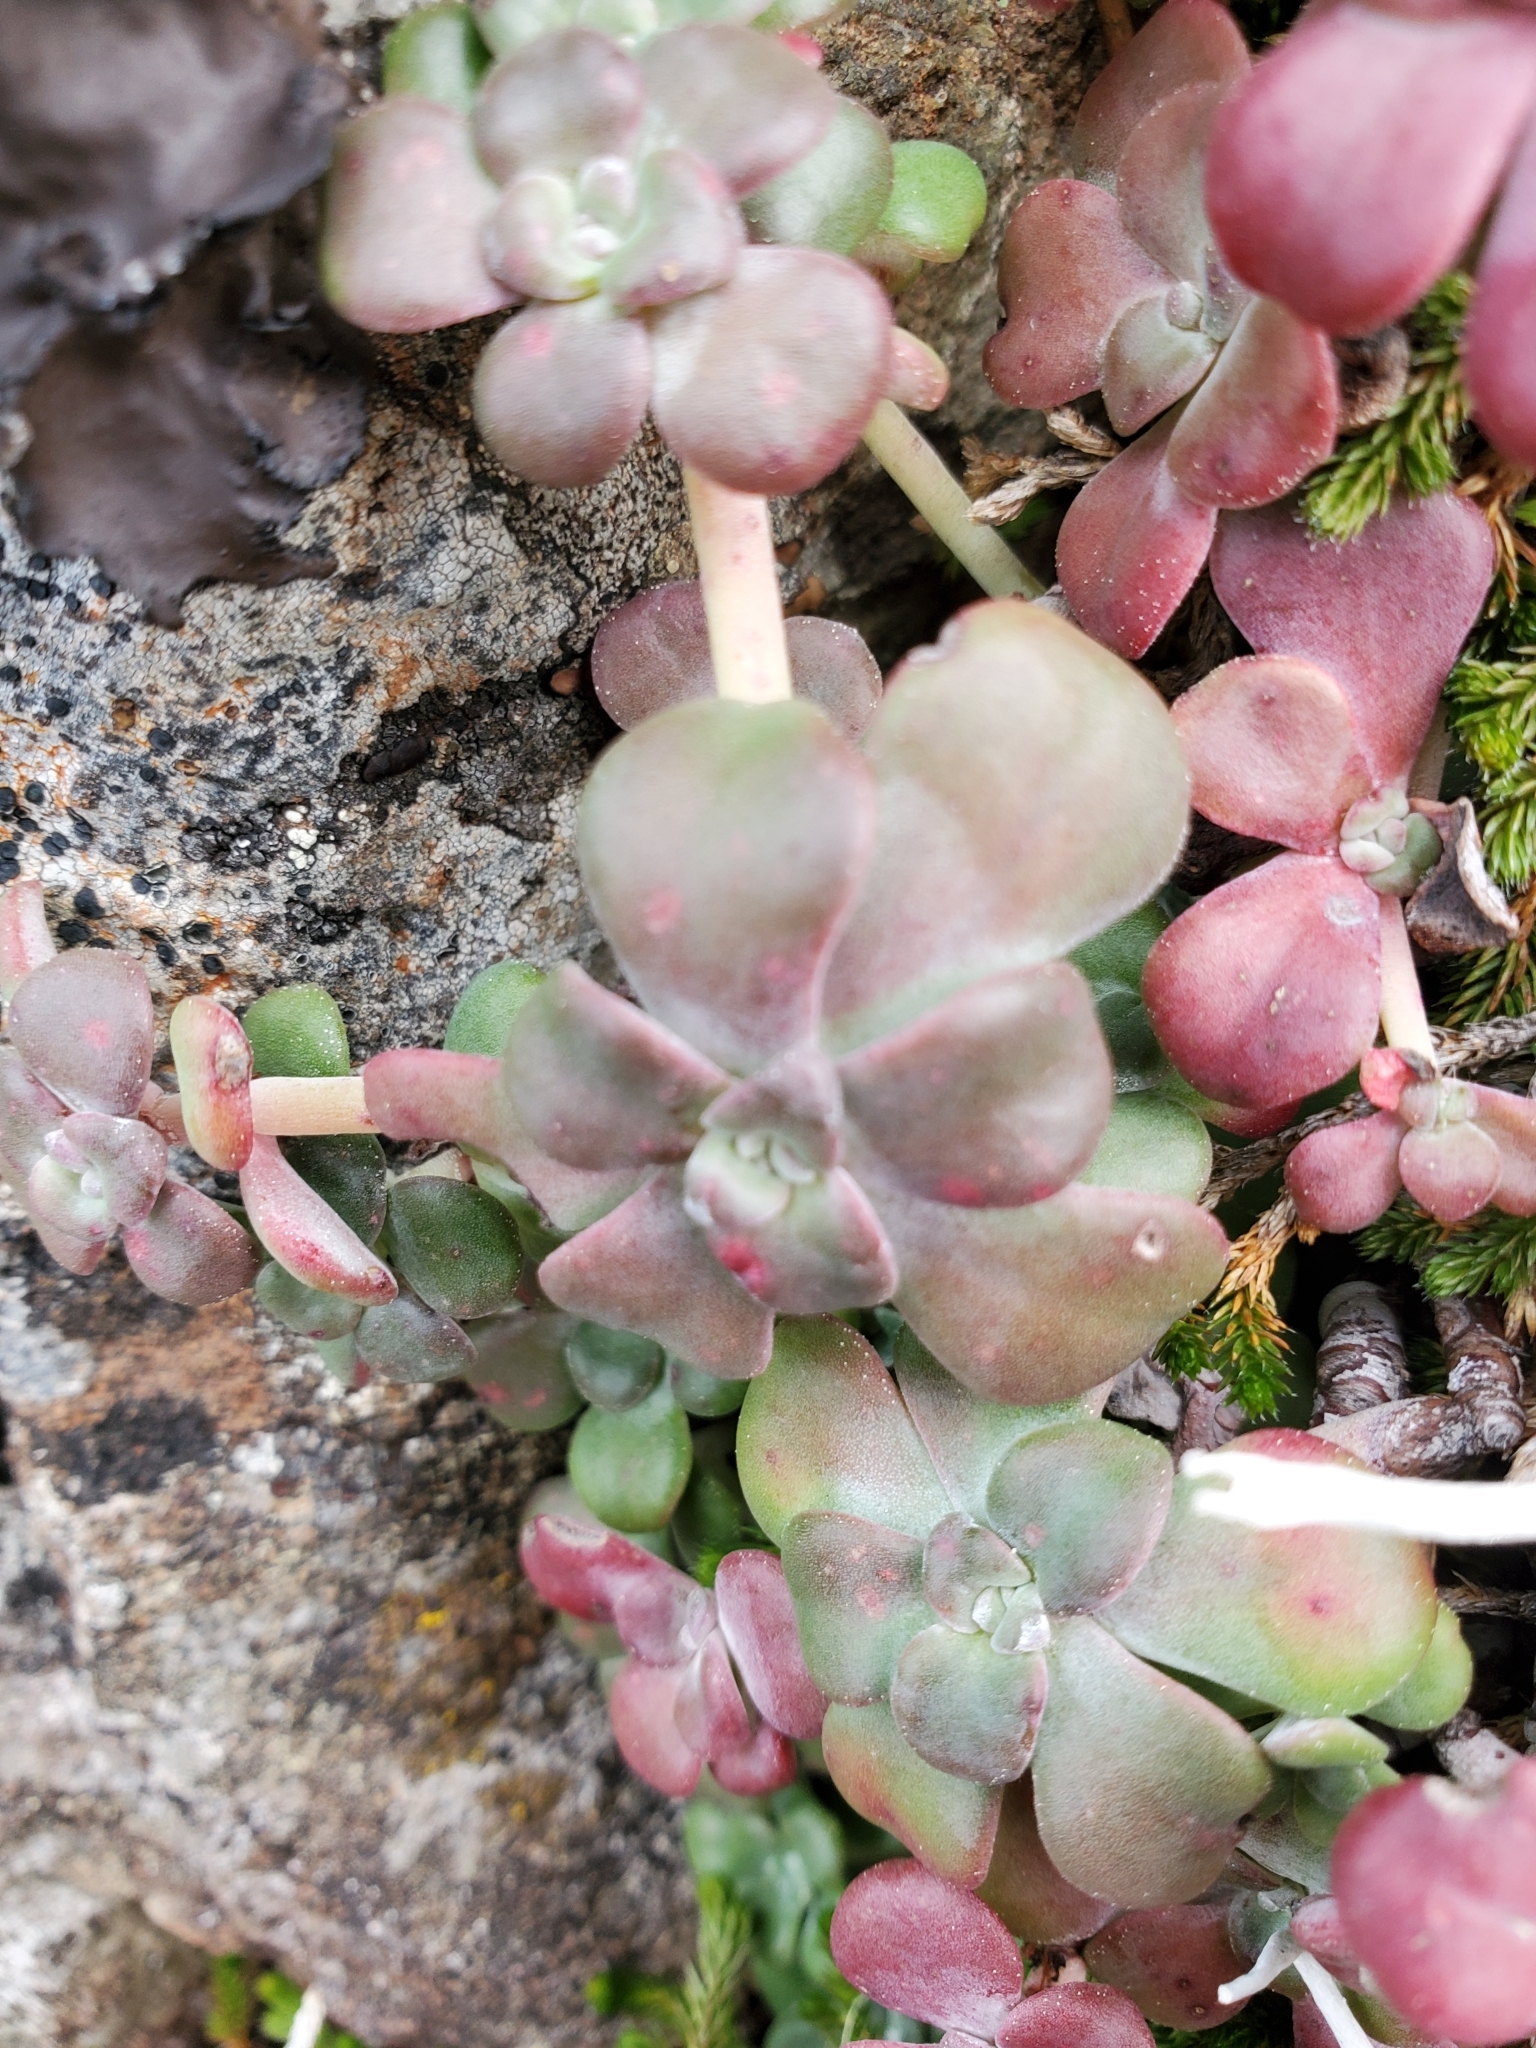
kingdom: Plantae
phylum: Tracheophyta
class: Magnoliopsida
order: Saxifragales
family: Crassulaceae
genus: Sedum
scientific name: Sedum spathulifolium
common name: Colorado stonecrop
